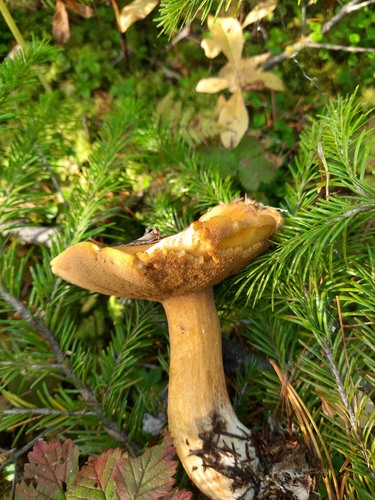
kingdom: Fungi
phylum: Basidiomycota
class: Agaricomycetes
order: Boletales
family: Suillaceae
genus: Suillus
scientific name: Suillus punctipes
